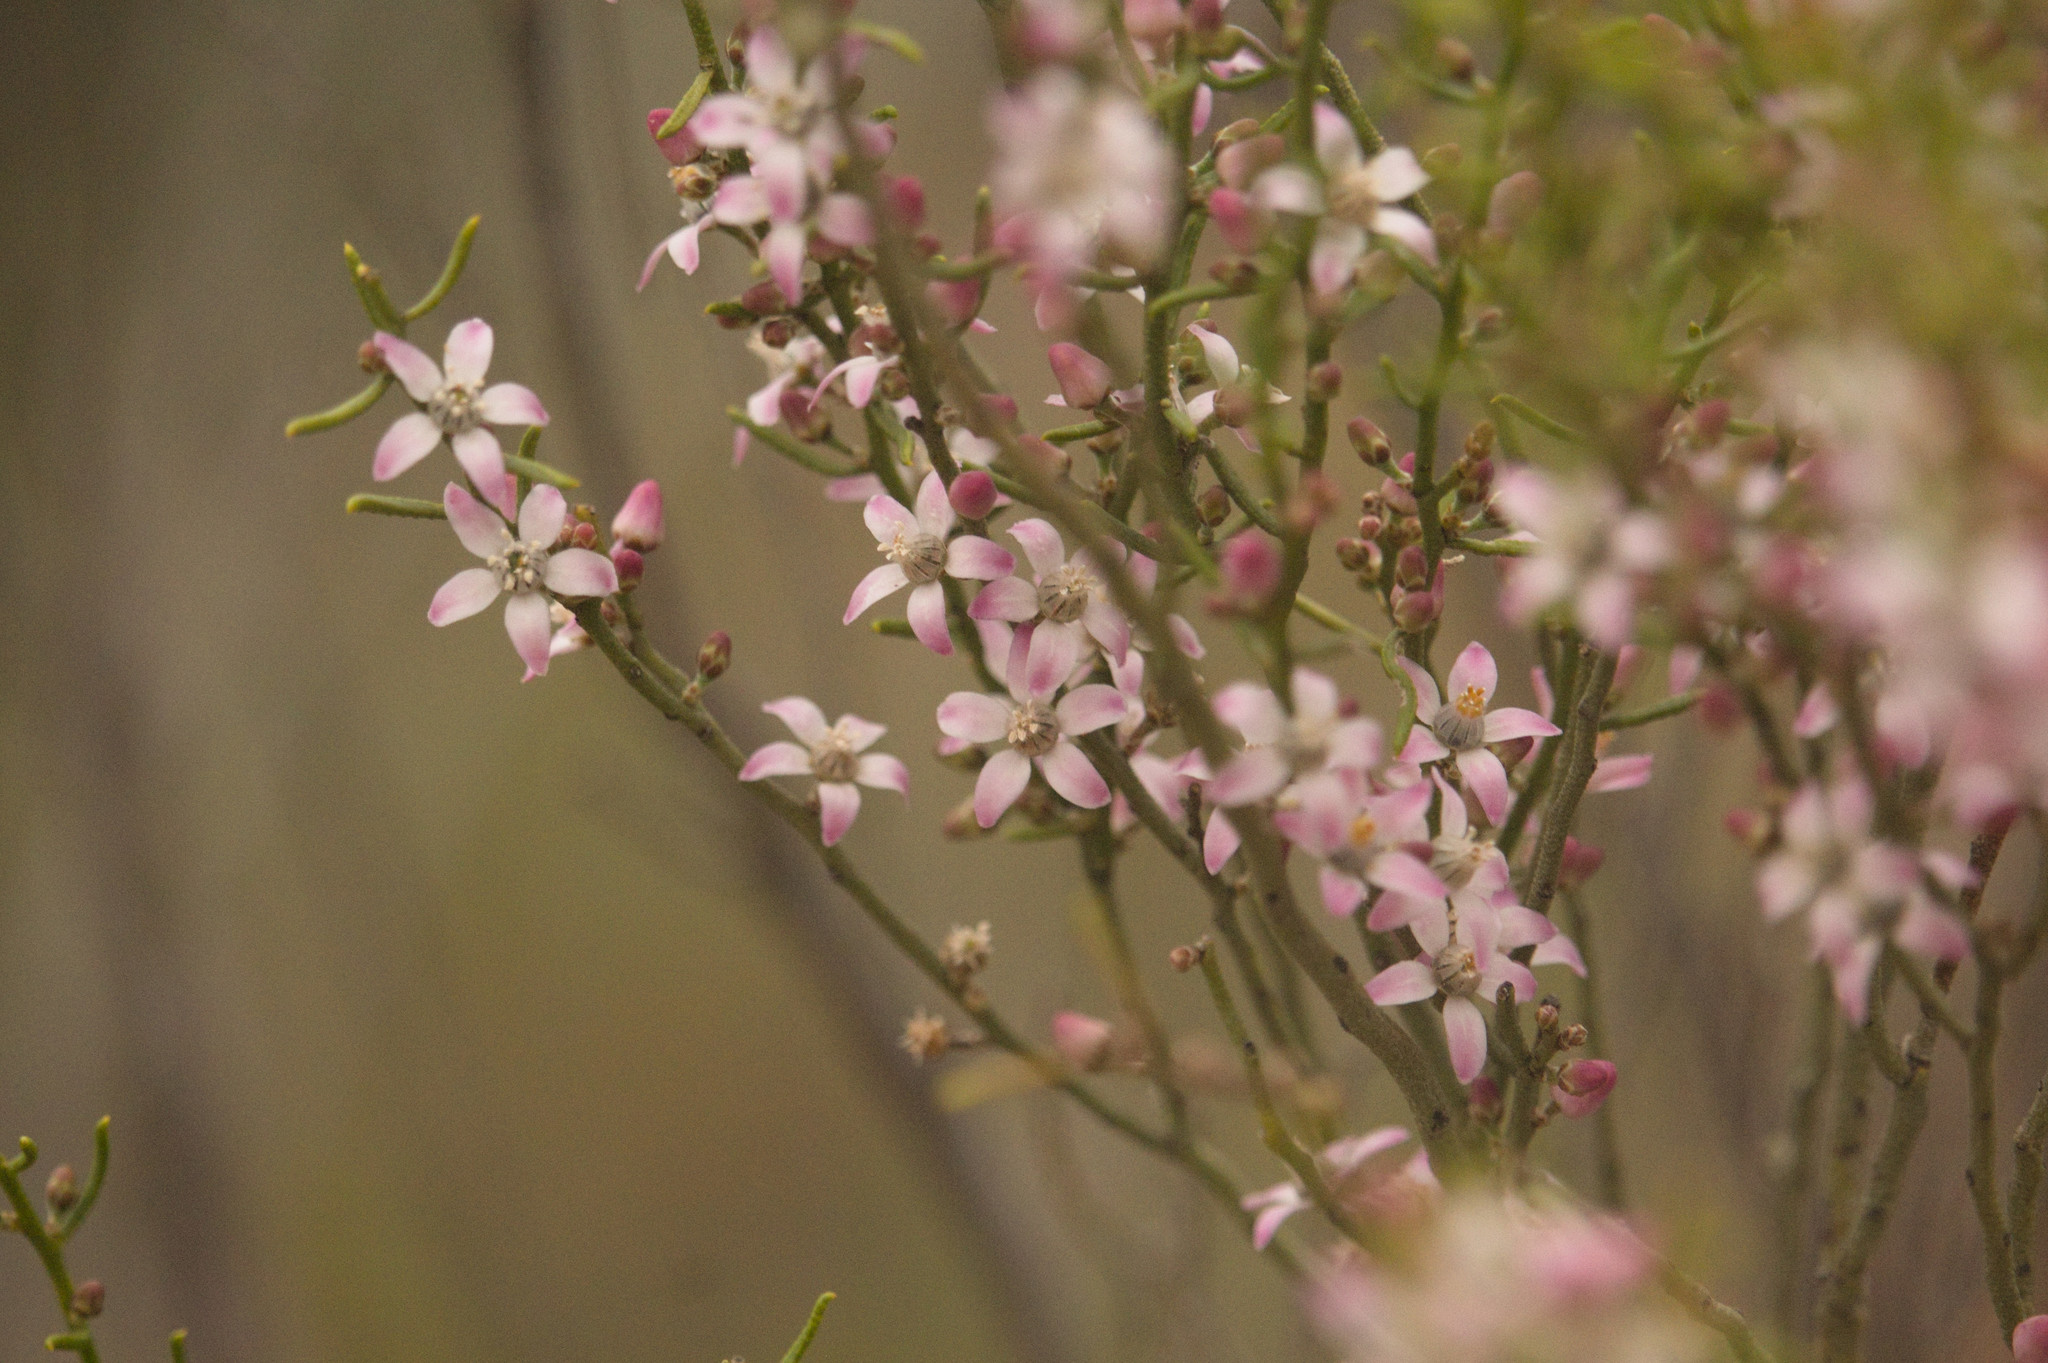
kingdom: Plantae
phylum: Tracheophyta
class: Magnoliopsida
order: Sapindales
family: Rutaceae
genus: Philotheca
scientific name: Philotheca brucei
